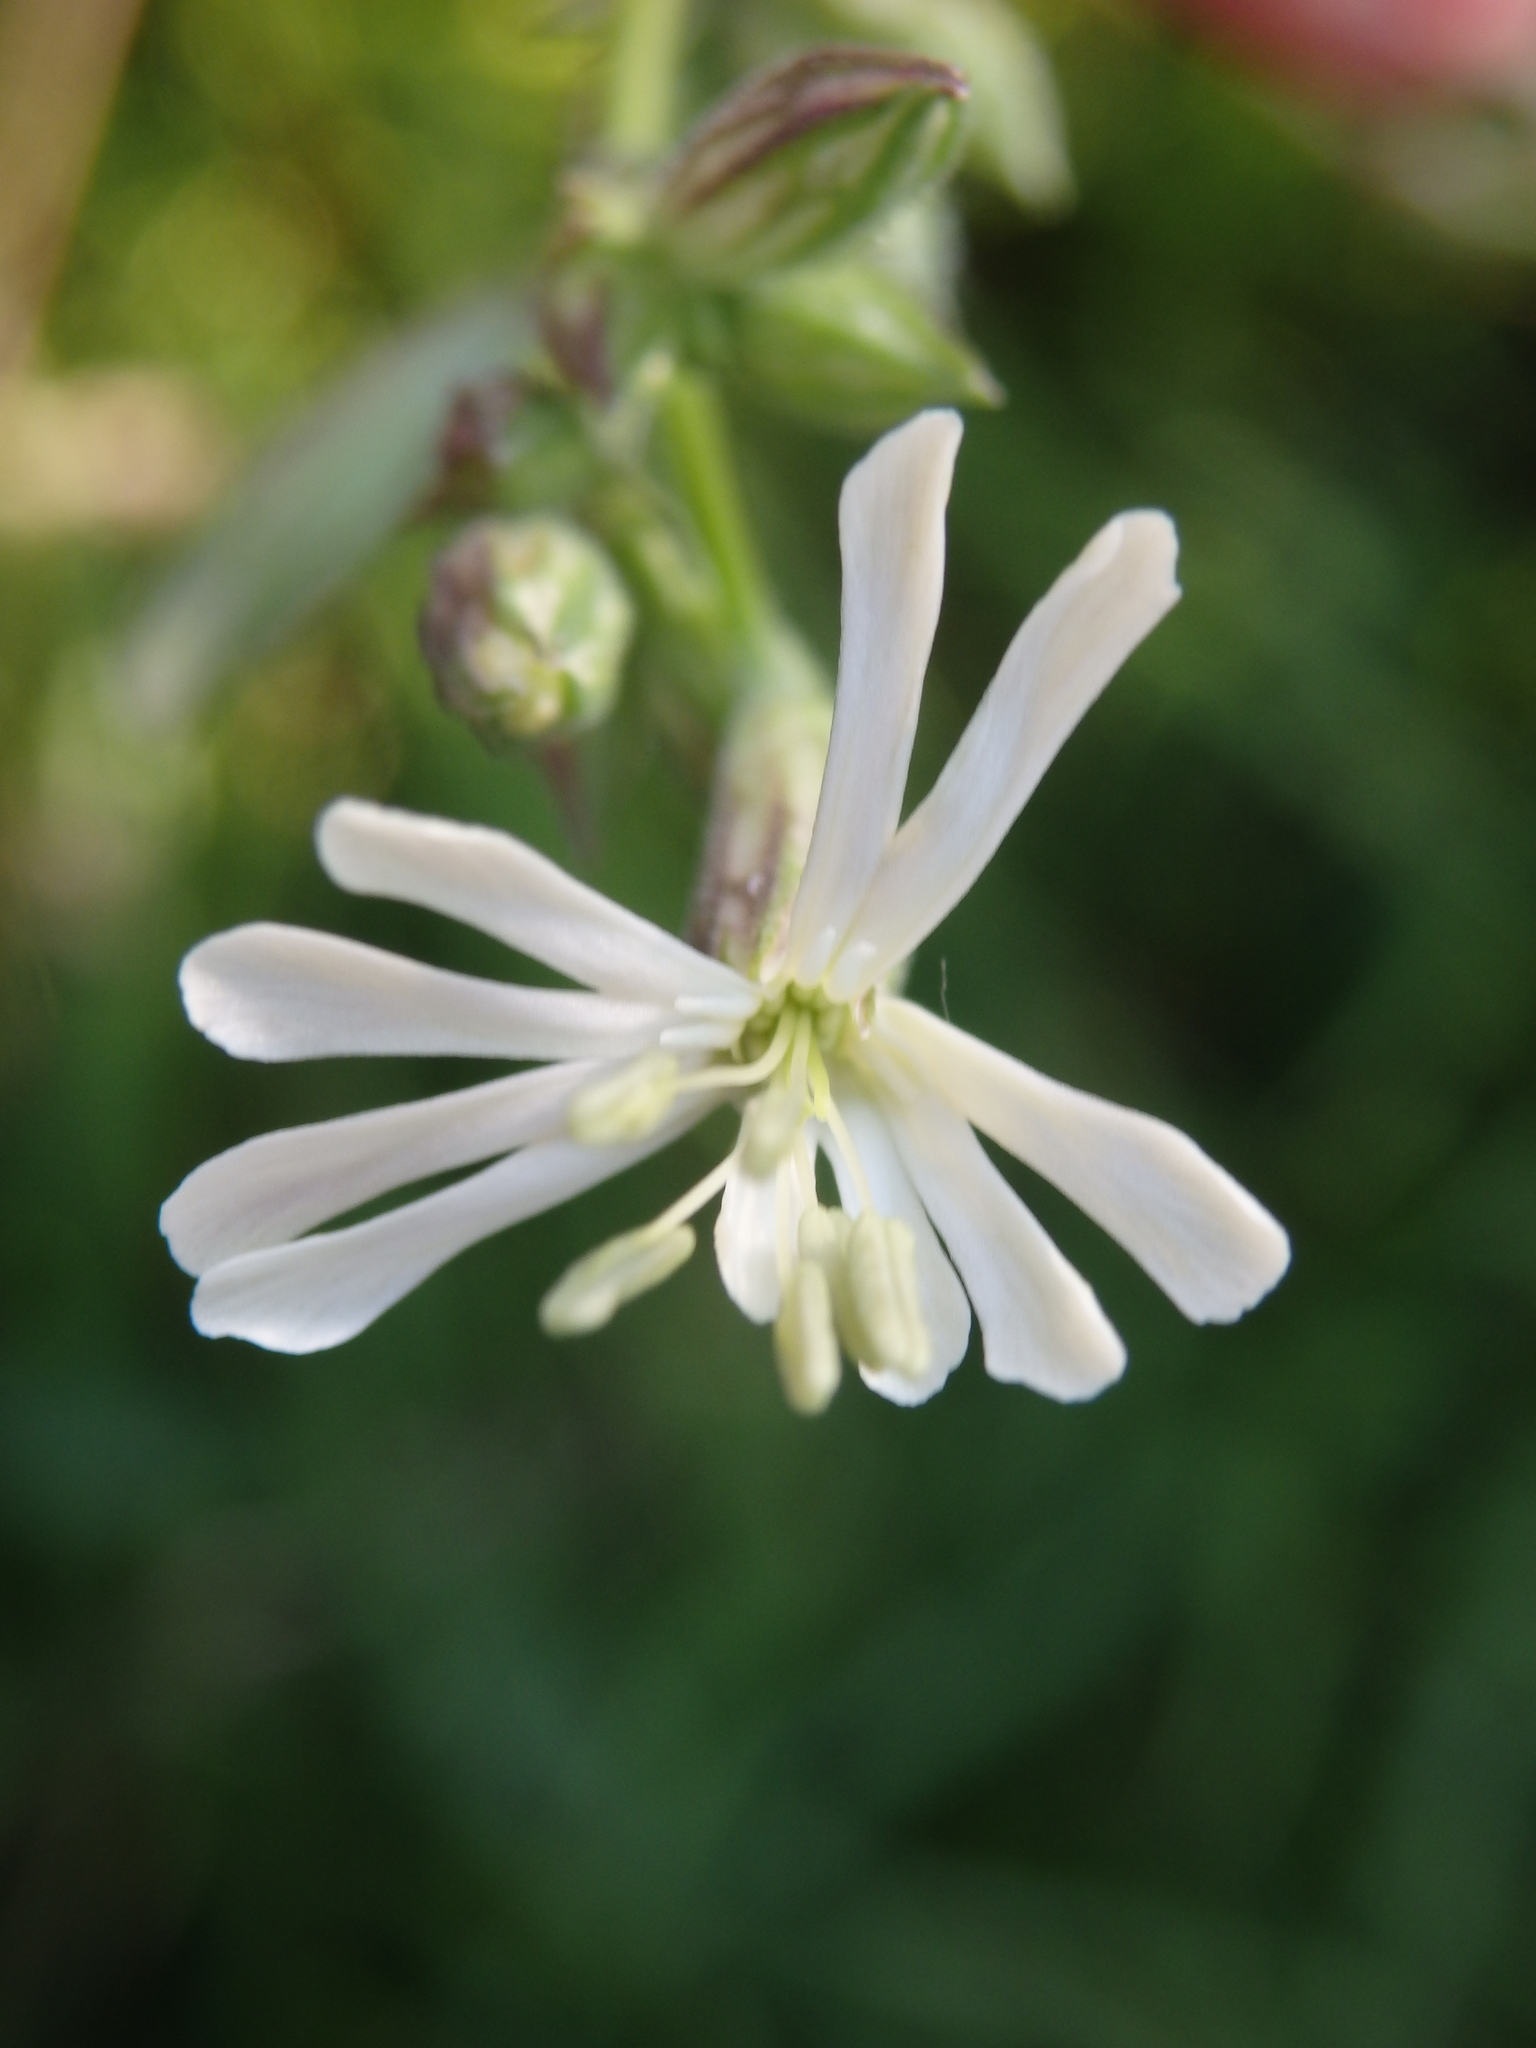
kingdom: Plantae
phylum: Tracheophyta
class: Magnoliopsida
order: Caryophyllales
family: Caryophyllaceae
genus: Silene
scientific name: Silene nutans
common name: Nottingham catchfly
